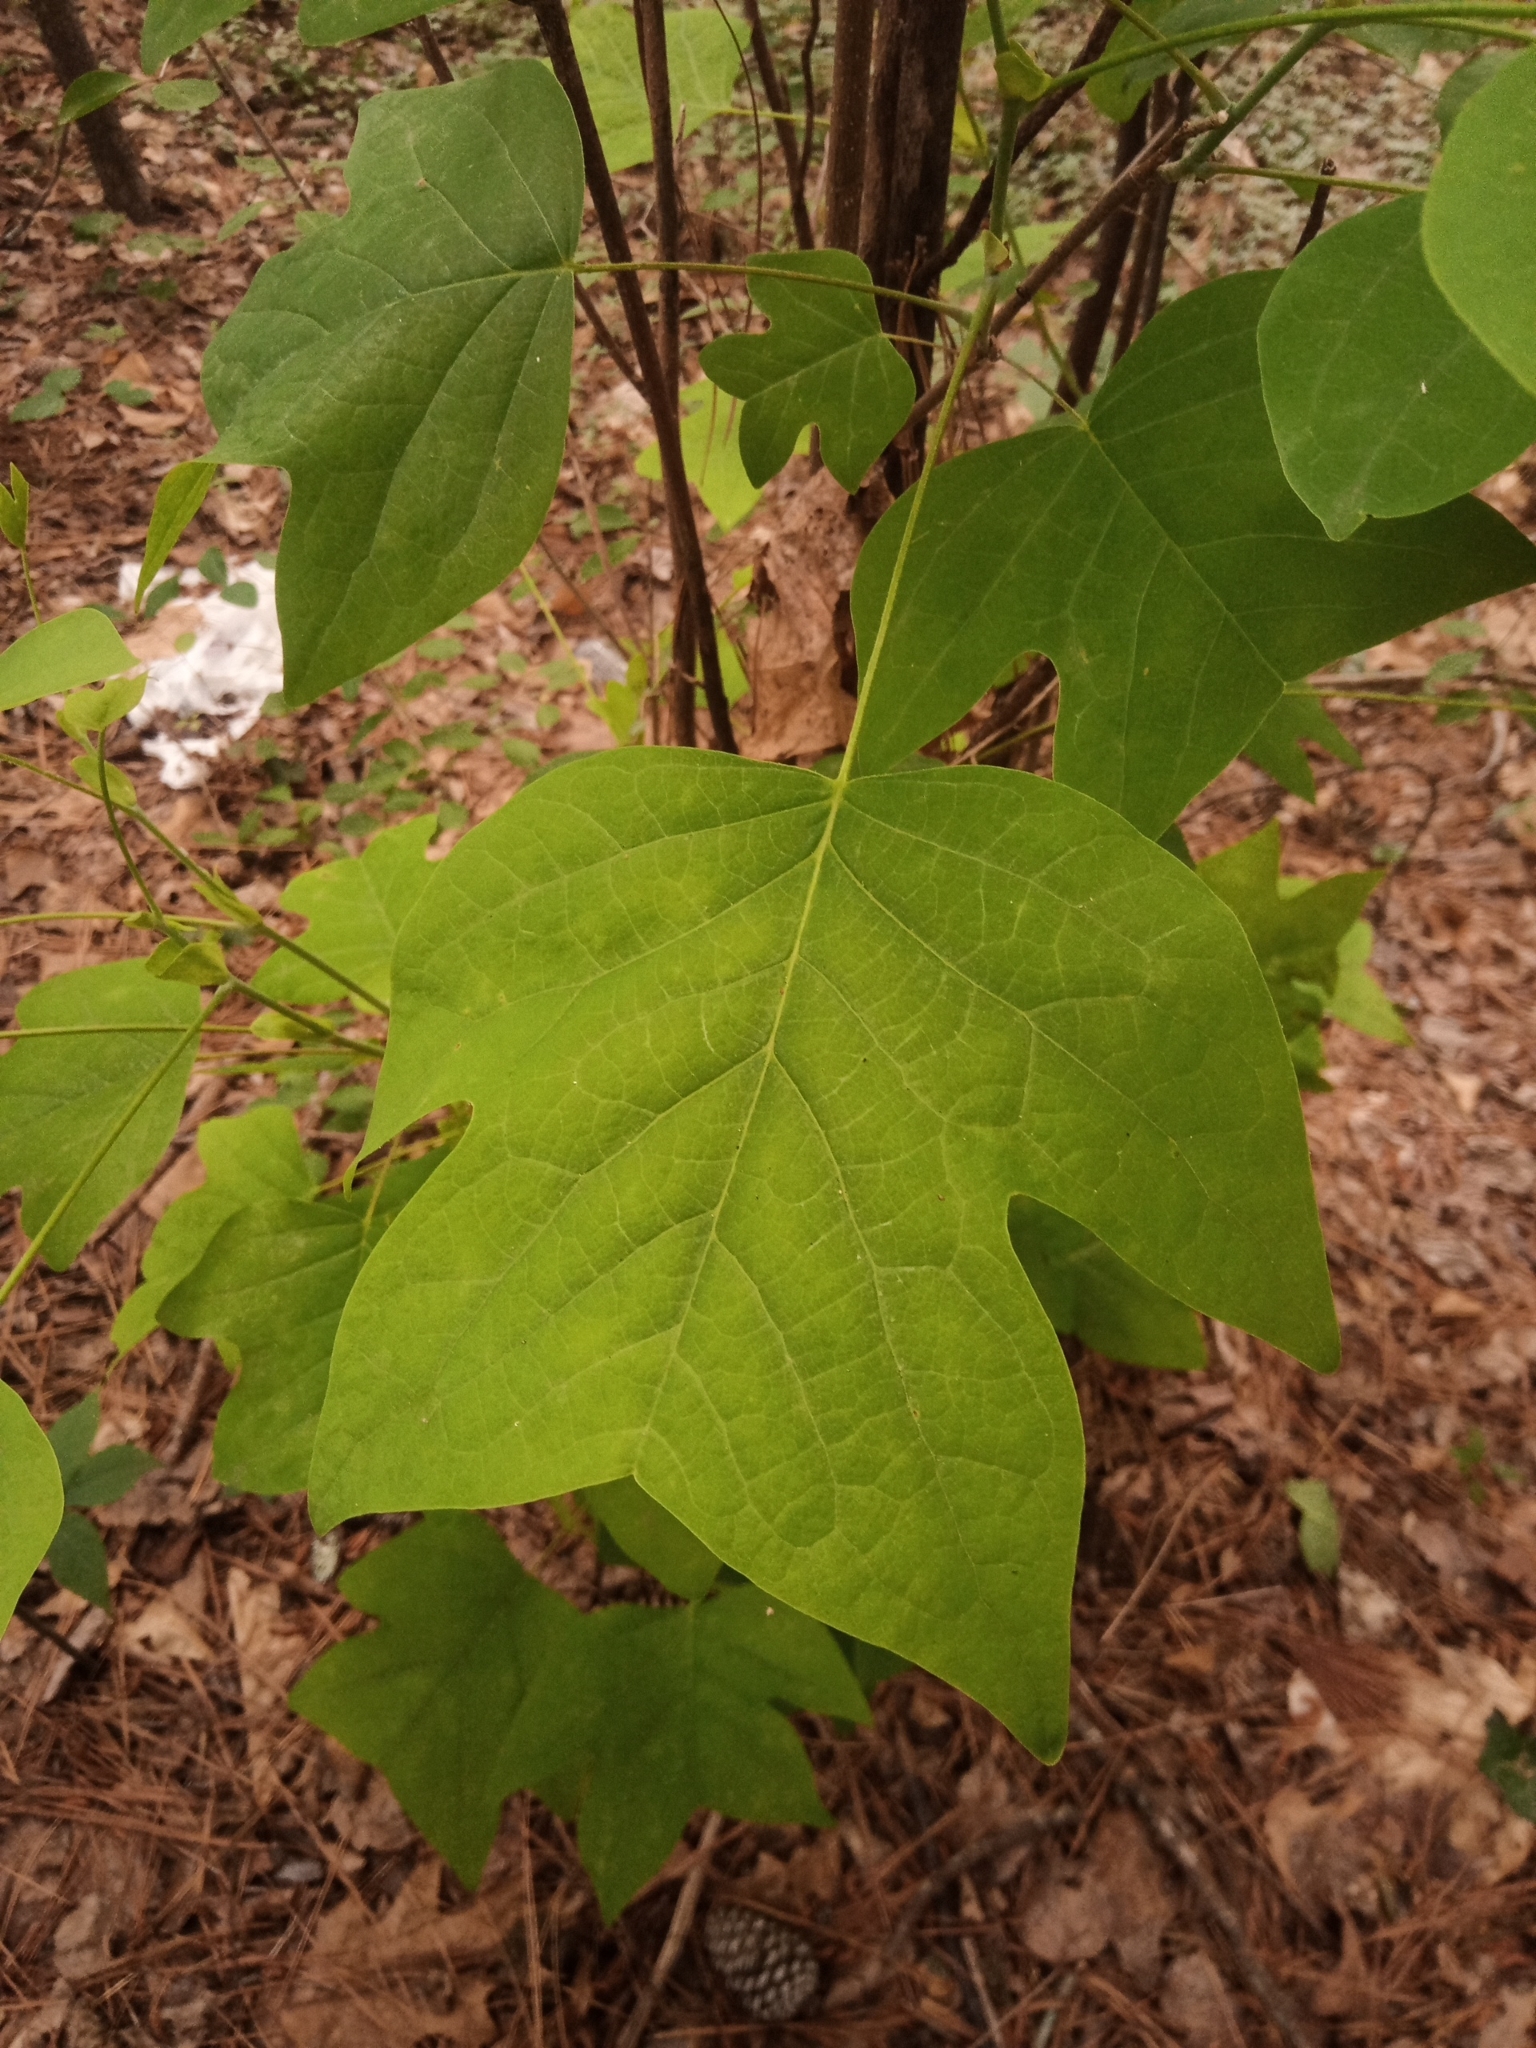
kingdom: Plantae
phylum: Tracheophyta
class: Magnoliopsida
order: Magnoliales
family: Magnoliaceae
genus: Liriodendron
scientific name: Liriodendron tulipifera
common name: Tulip tree
